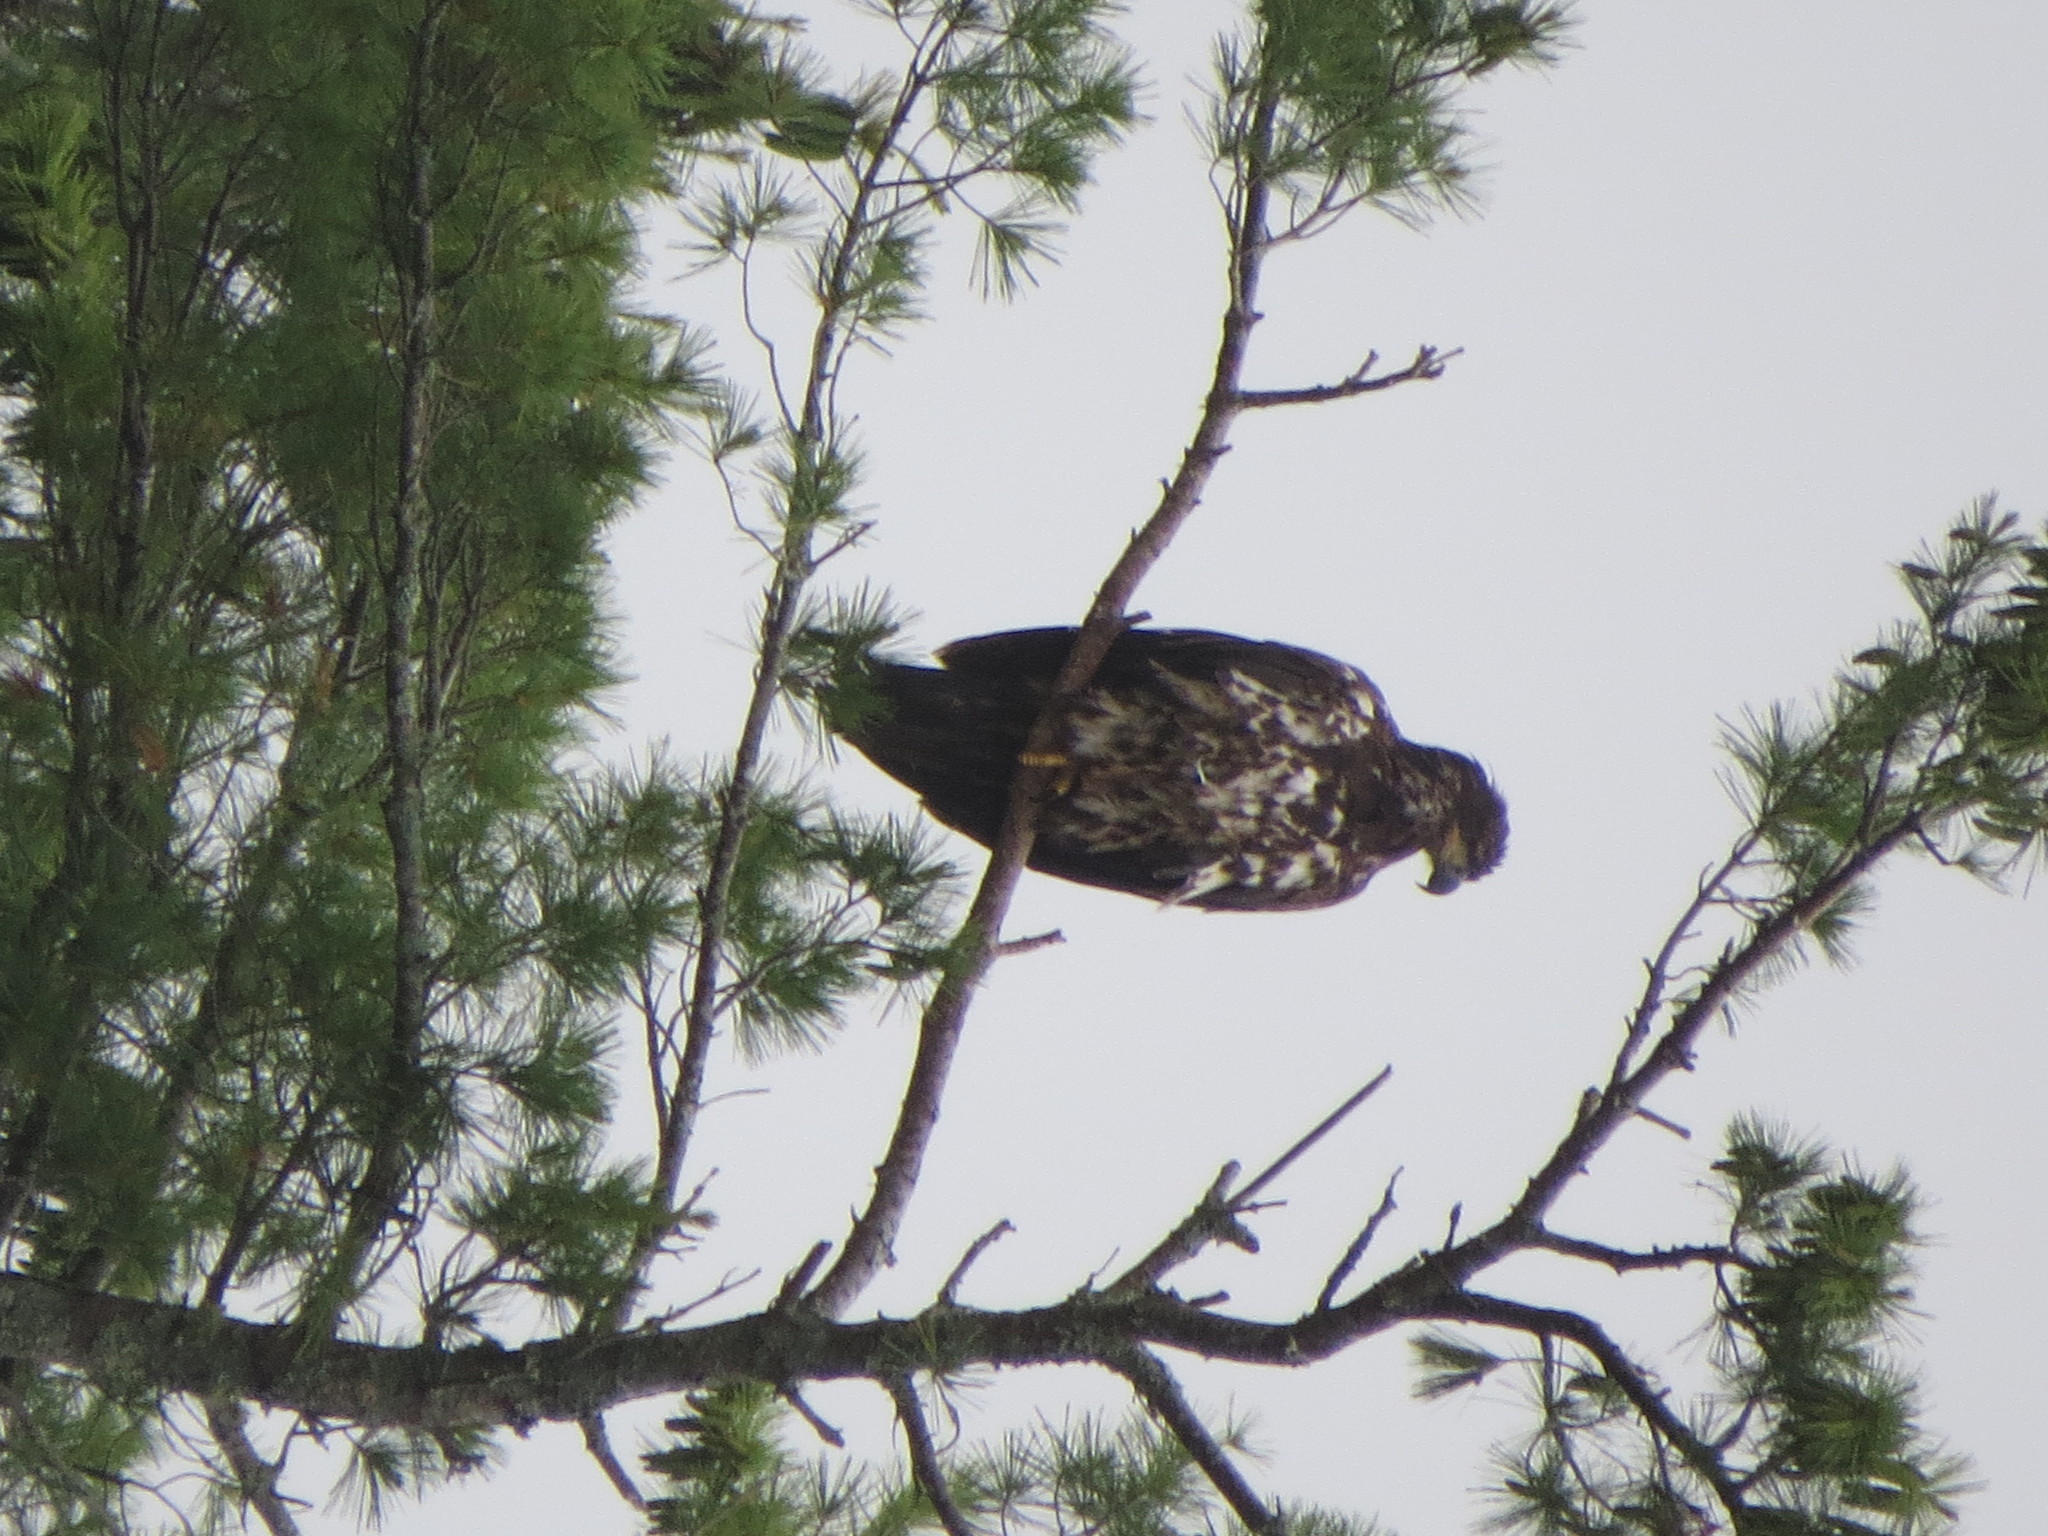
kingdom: Animalia
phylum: Chordata
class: Aves
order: Accipitriformes
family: Accipitridae
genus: Haliaeetus
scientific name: Haliaeetus leucocephalus
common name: Bald eagle
